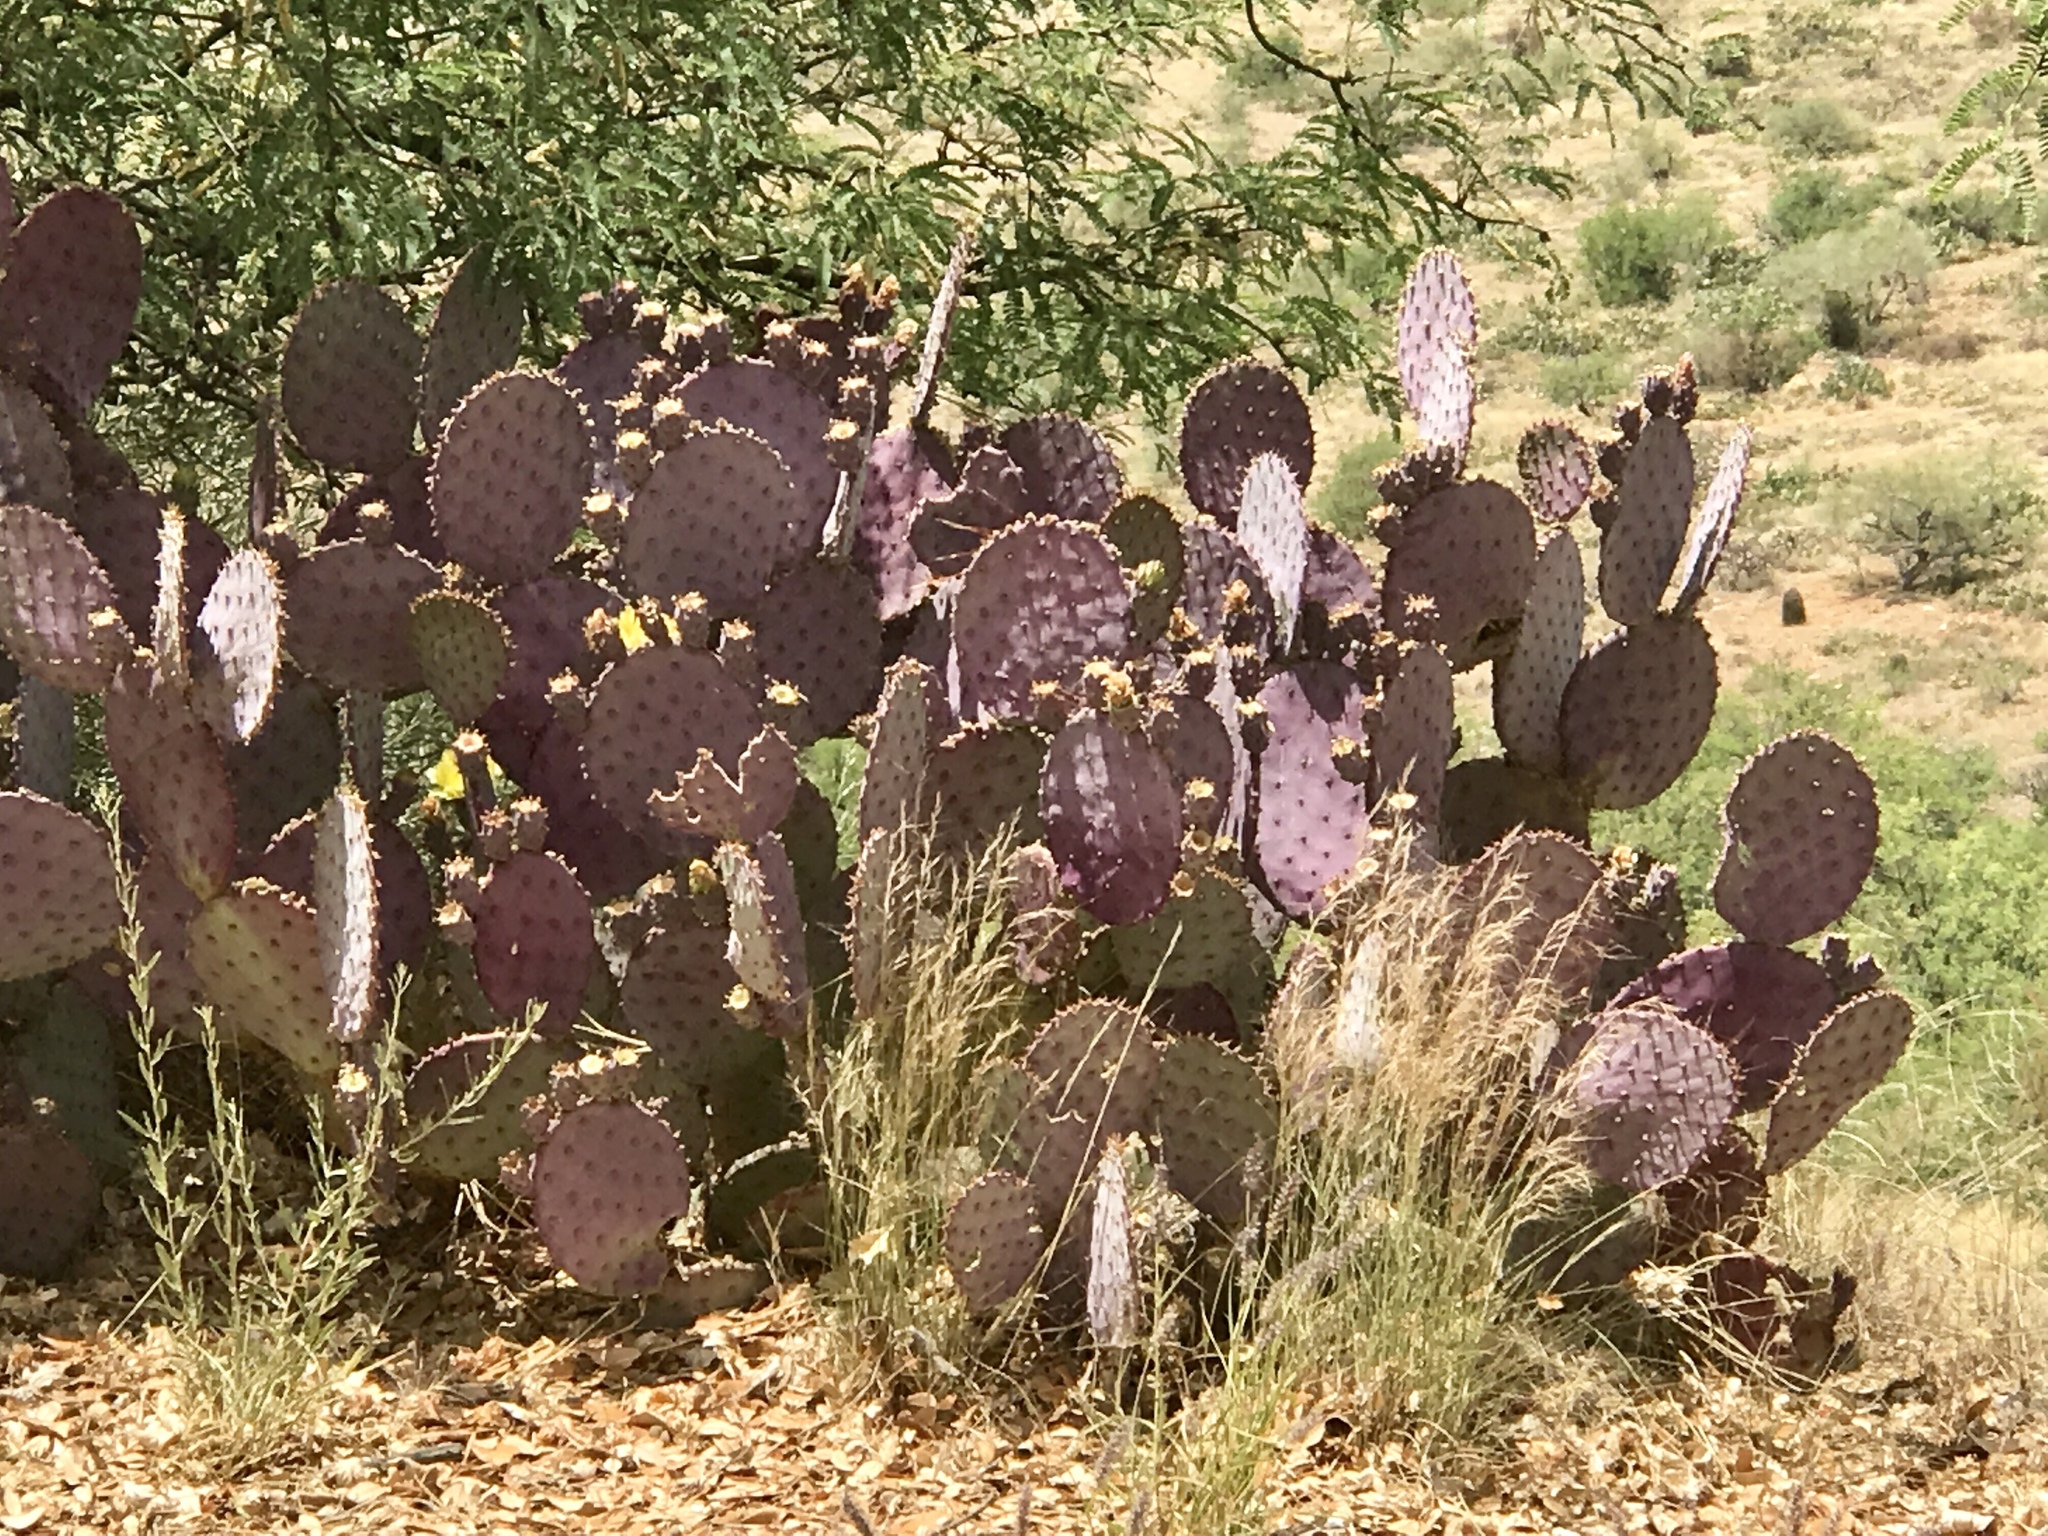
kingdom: Plantae
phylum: Tracheophyta
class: Magnoliopsida
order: Caryophyllales
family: Cactaceae
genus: Opuntia
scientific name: Opuntia gosseliniana
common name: Violet prickly-pear
